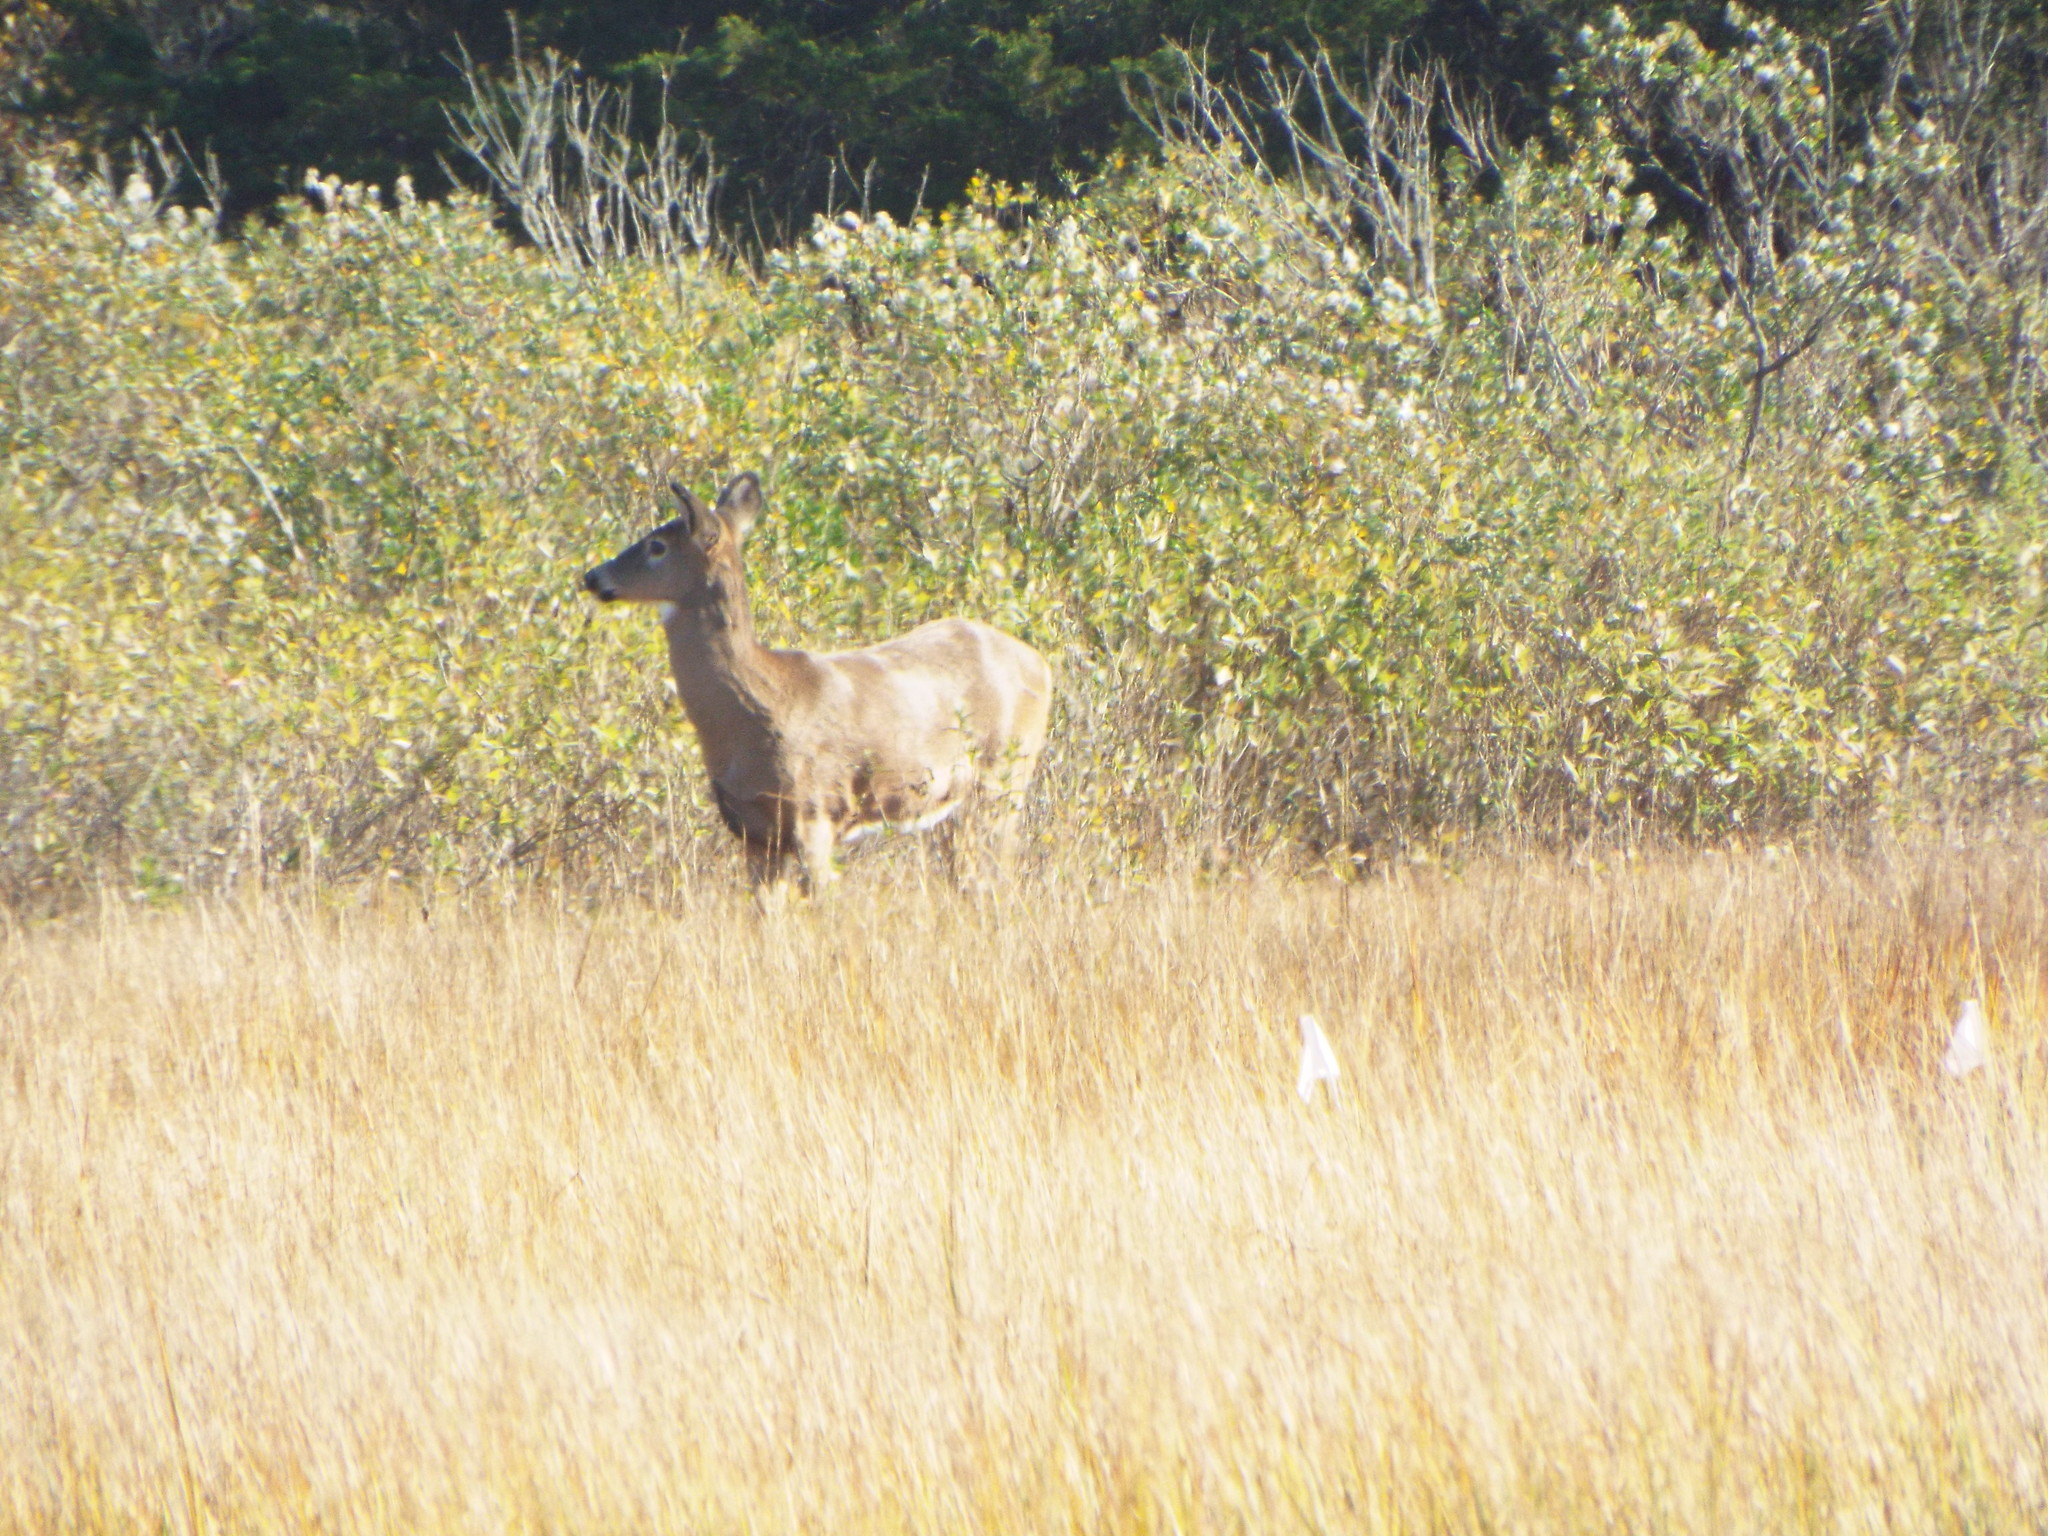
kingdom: Animalia
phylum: Chordata
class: Mammalia
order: Artiodactyla
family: Cervidae
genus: Odocoileus
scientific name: Odocoileus virginianus
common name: White-tailed deer
